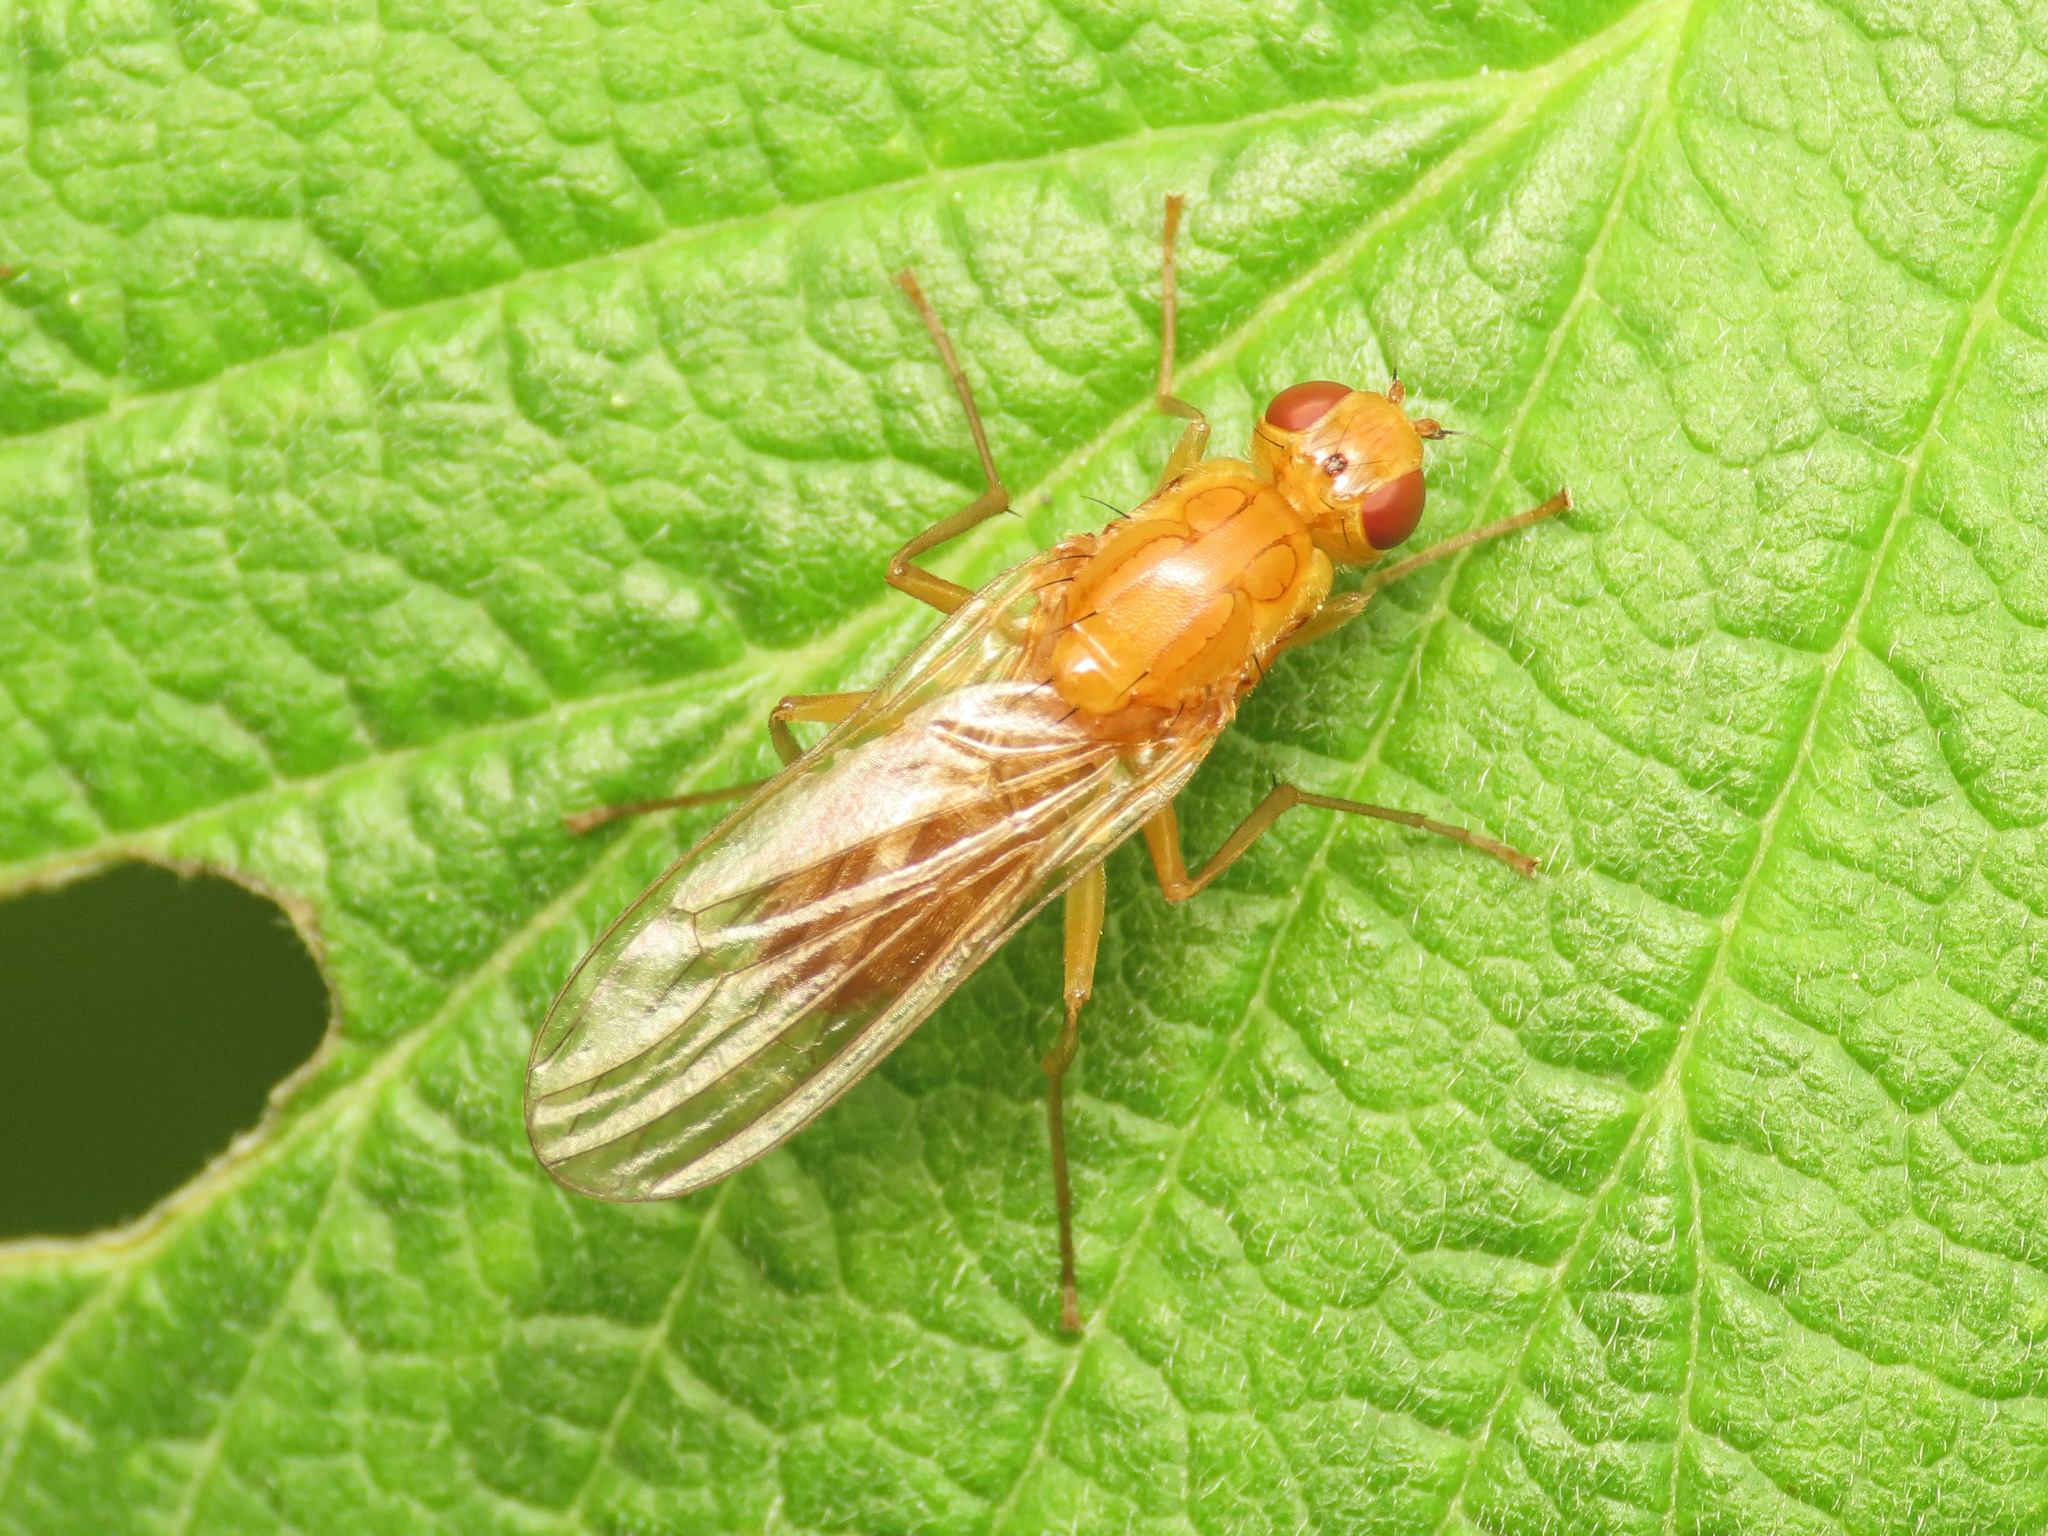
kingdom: Animalia
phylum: Arthropoda
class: Insecta
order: Diptera
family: Psilidae
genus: Psila
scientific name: Psila fimetaria
